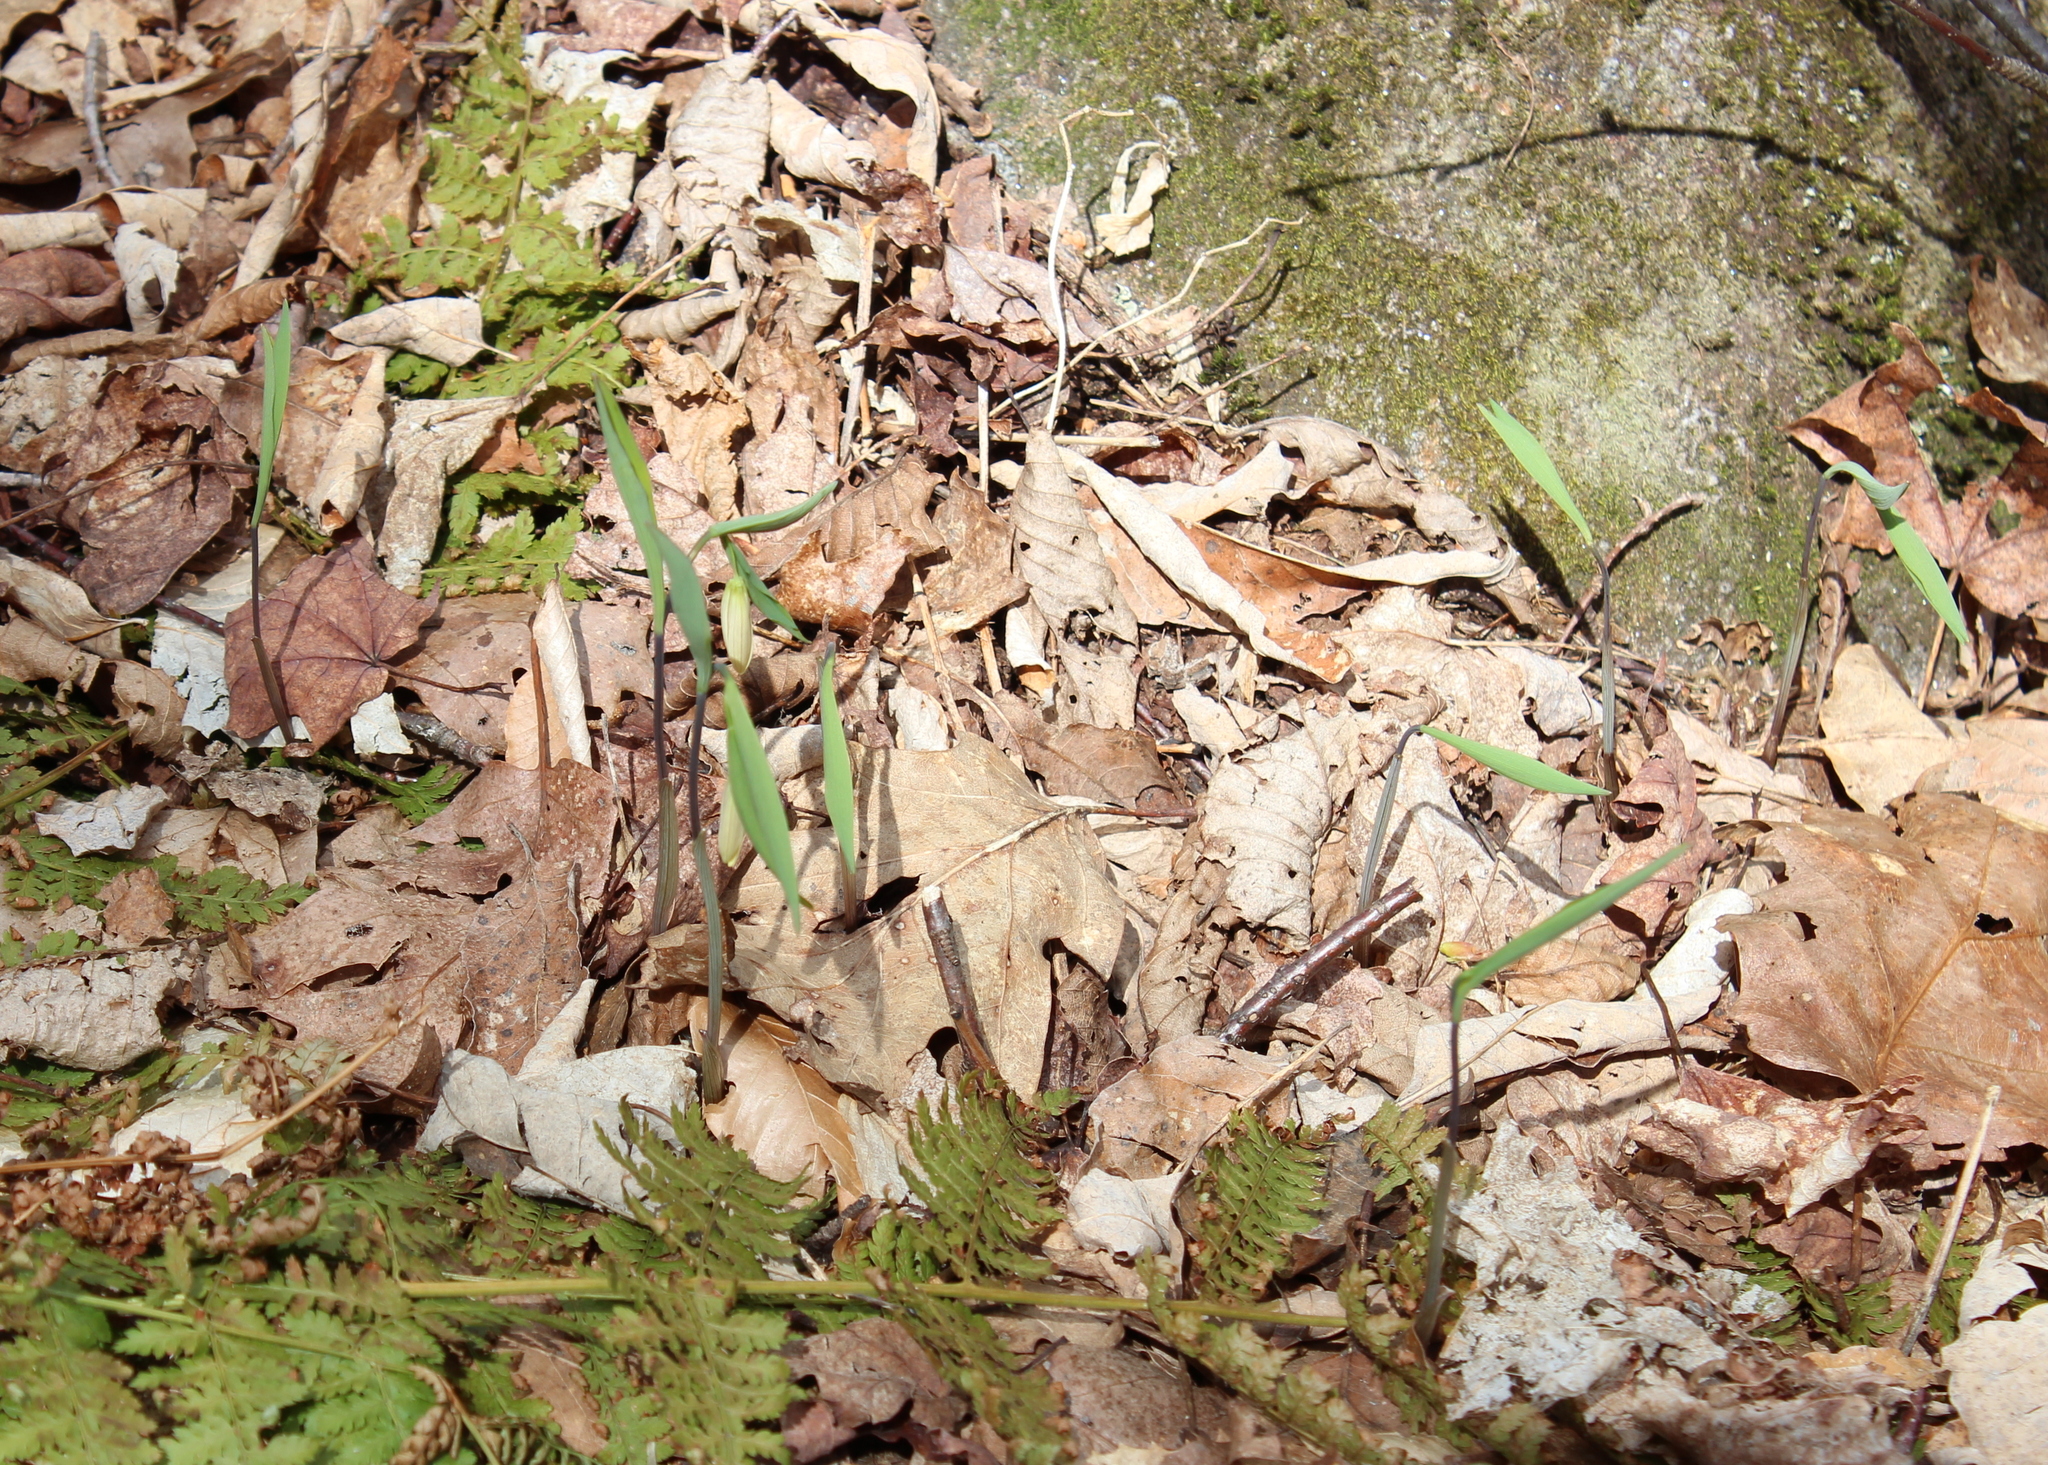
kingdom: Plantae
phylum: Tracheophyta
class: Liliopsida
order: Liliales
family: Colchicaceae
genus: Uvularia
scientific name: Uvularia sessilifolia
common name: Straw-lily
